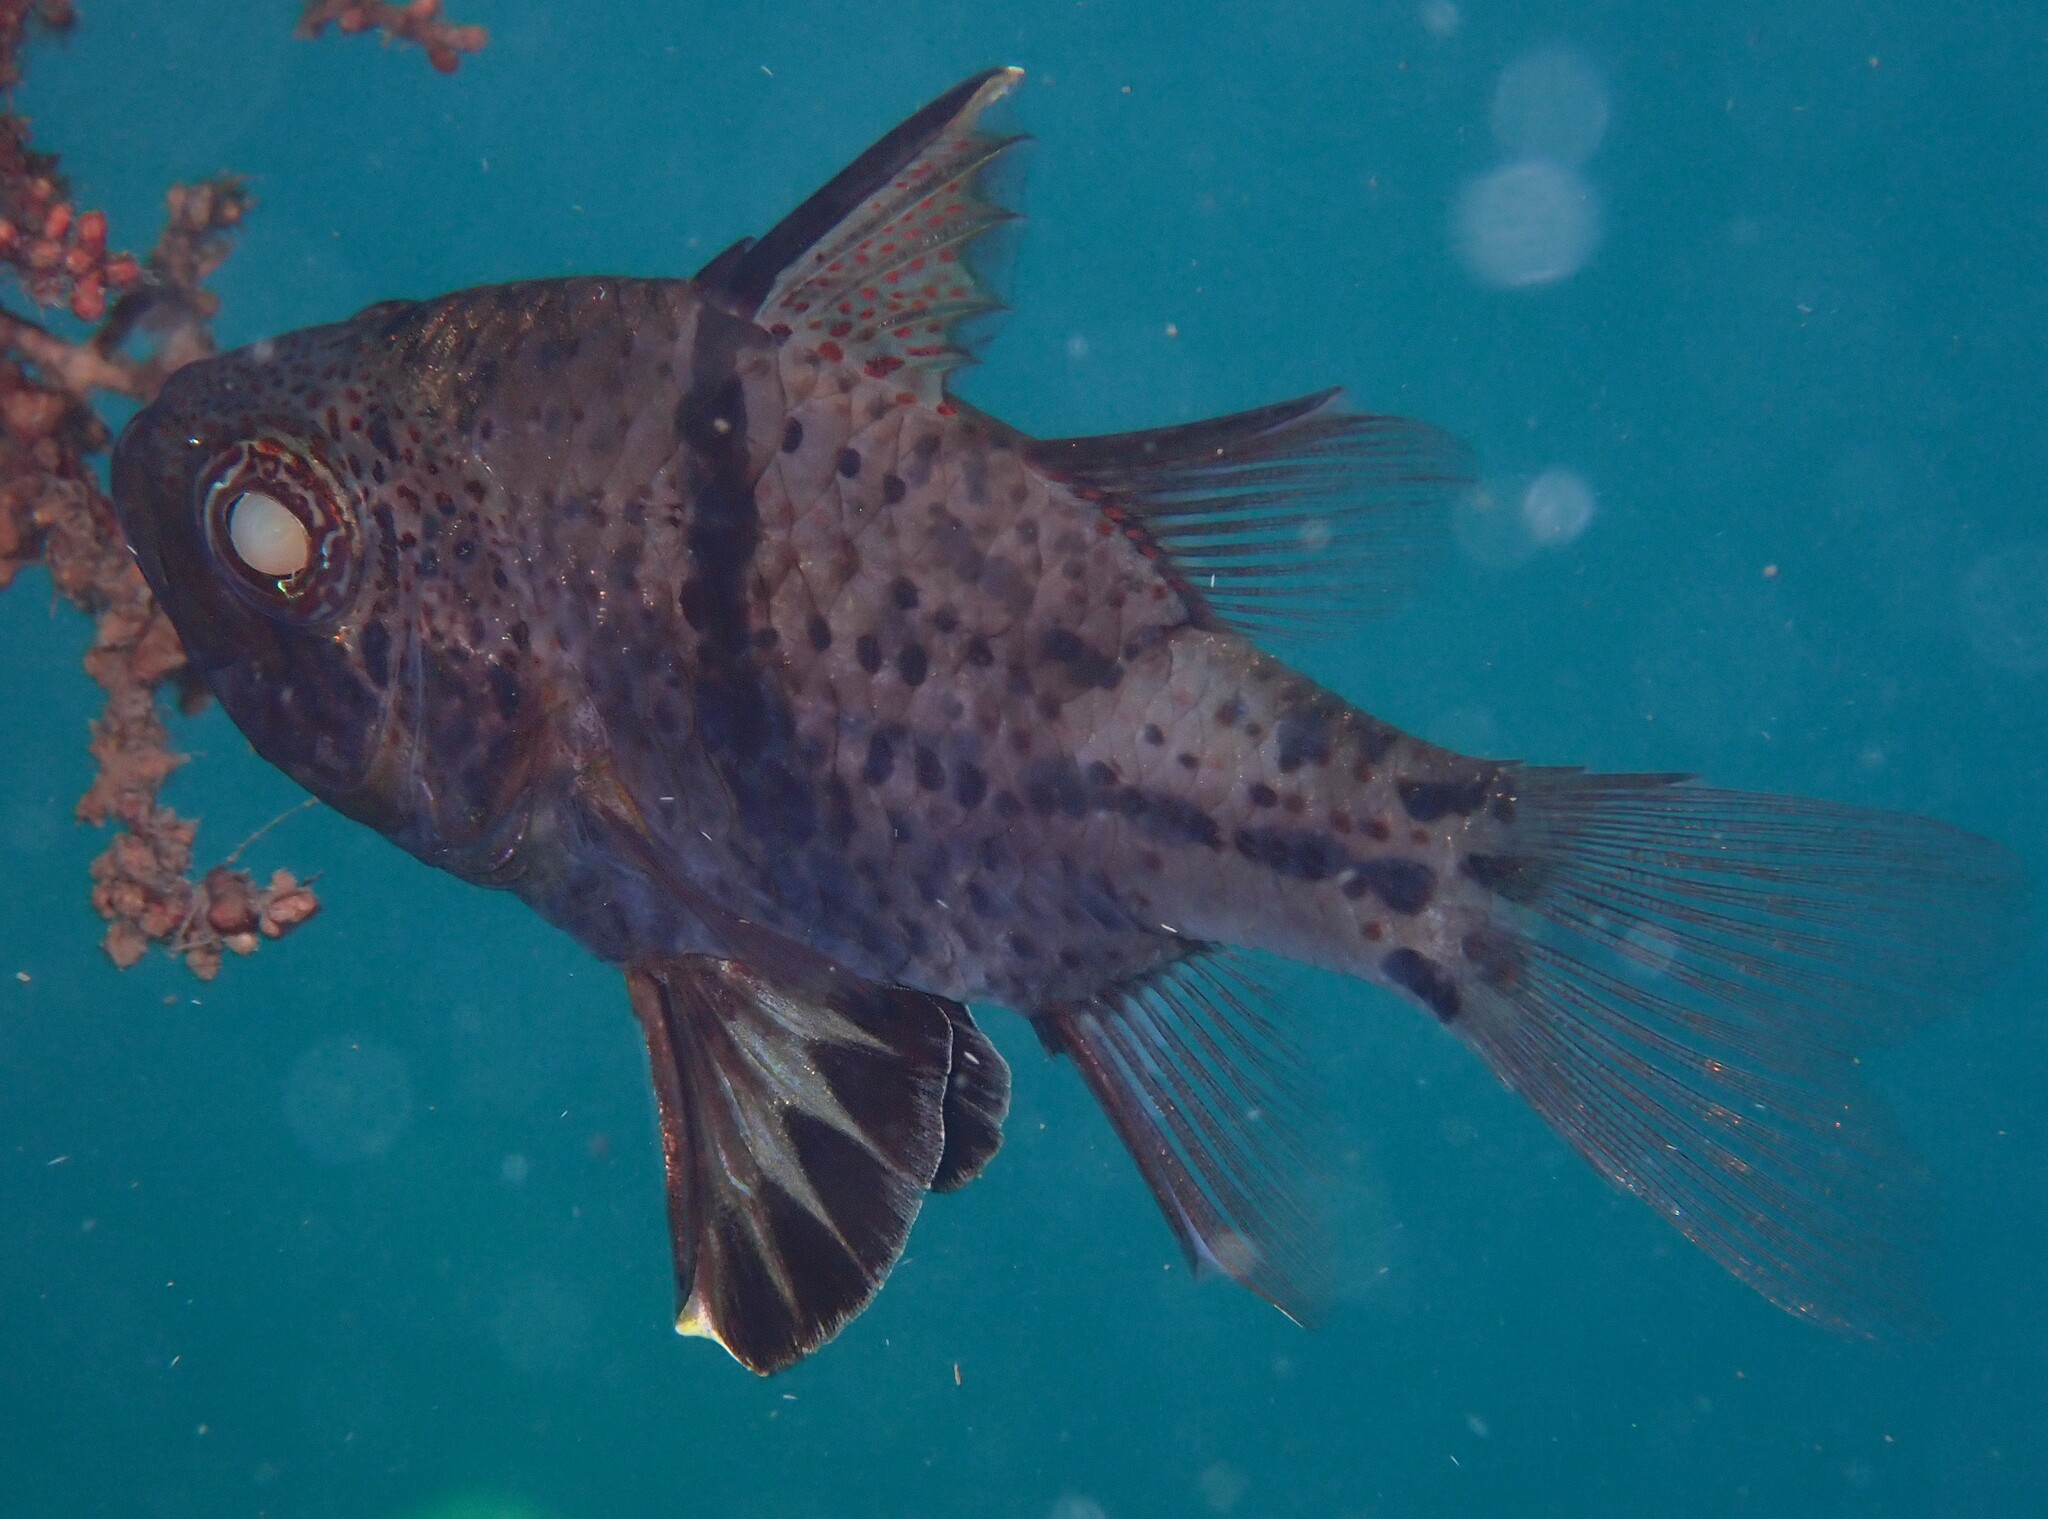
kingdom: Animalia
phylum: Chordata
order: Perciformes
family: Apogonidae
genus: Sphaeramia
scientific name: Sphaeramia orbicularis
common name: Polka-dot cardinalfish
